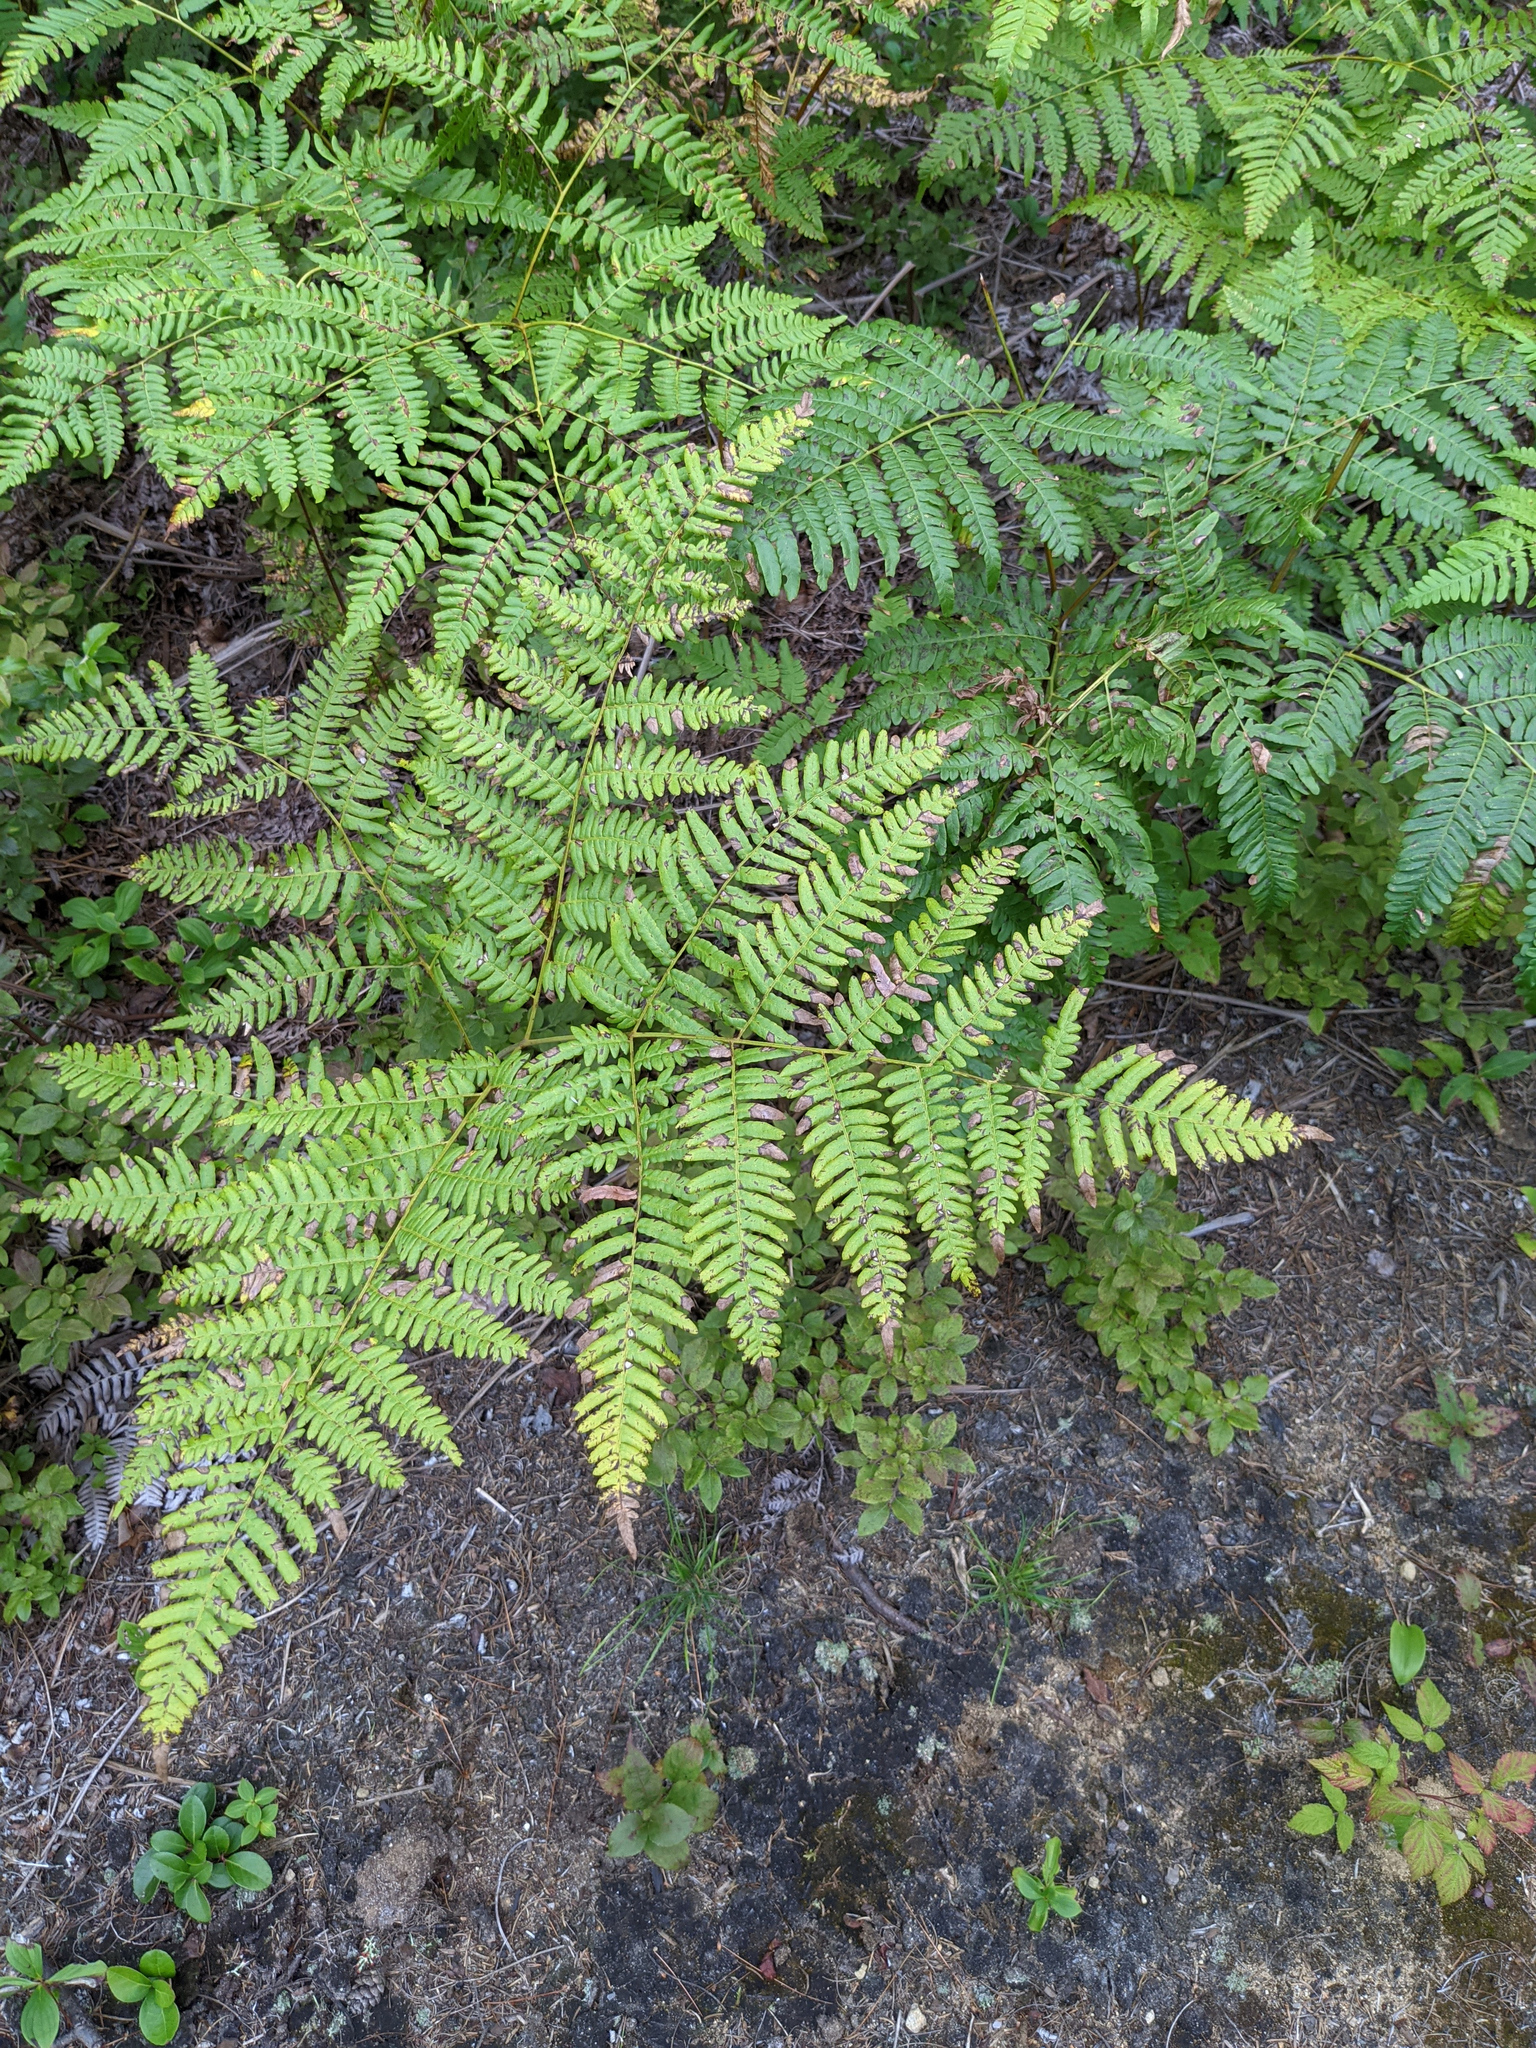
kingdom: Plantae
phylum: Tracheophyta
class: Polypodiopsida
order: Polypodiales
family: Dennstaedtiaceae
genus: Pteridium
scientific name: Pteridium aquilinum
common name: Bracken
